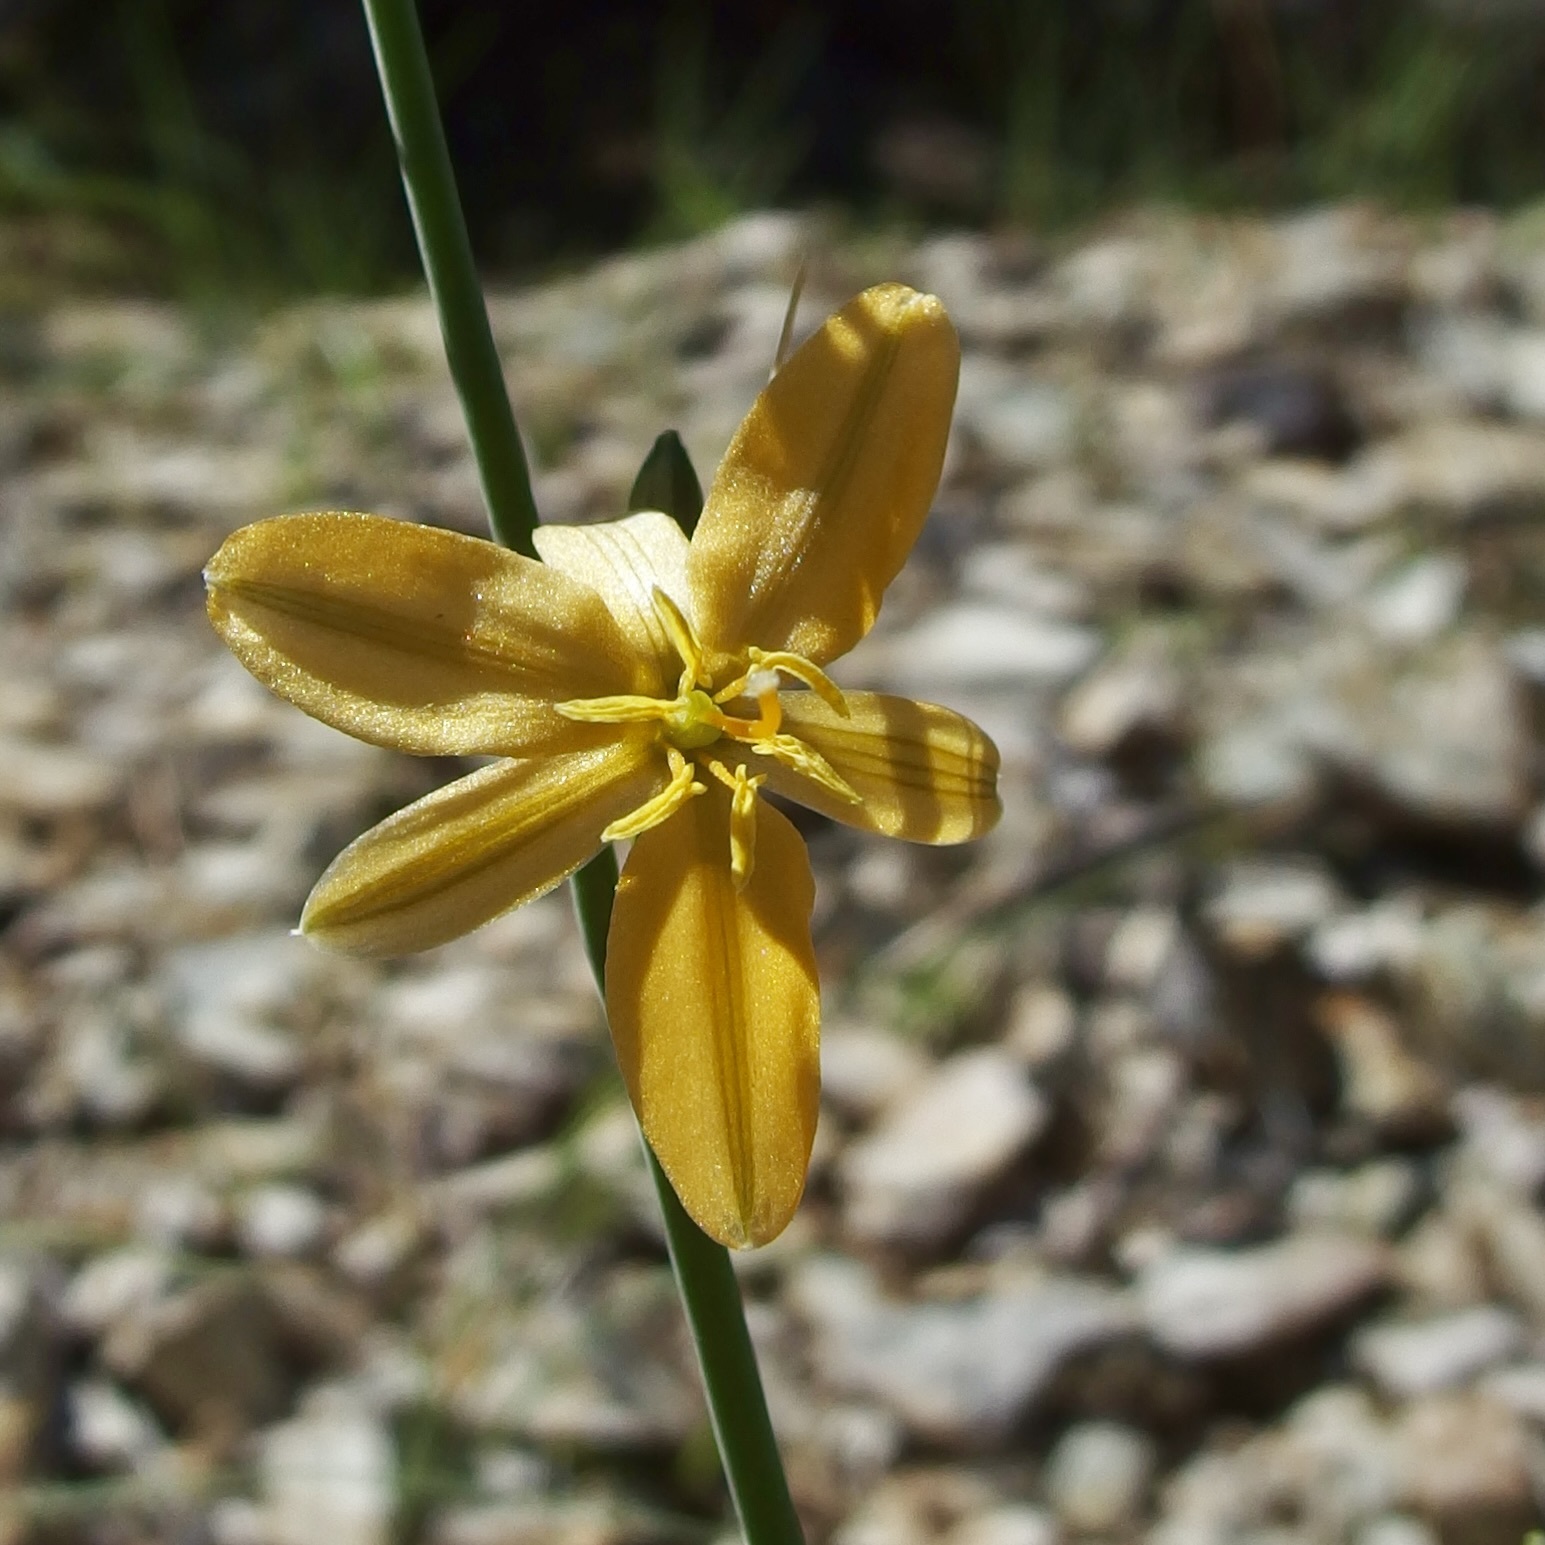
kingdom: Plantae
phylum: Tracheophyta
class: Liliopsida
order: Asparagales
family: Asparagaceae
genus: Echeandia
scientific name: Echeandia flavescens
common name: Amberlily
